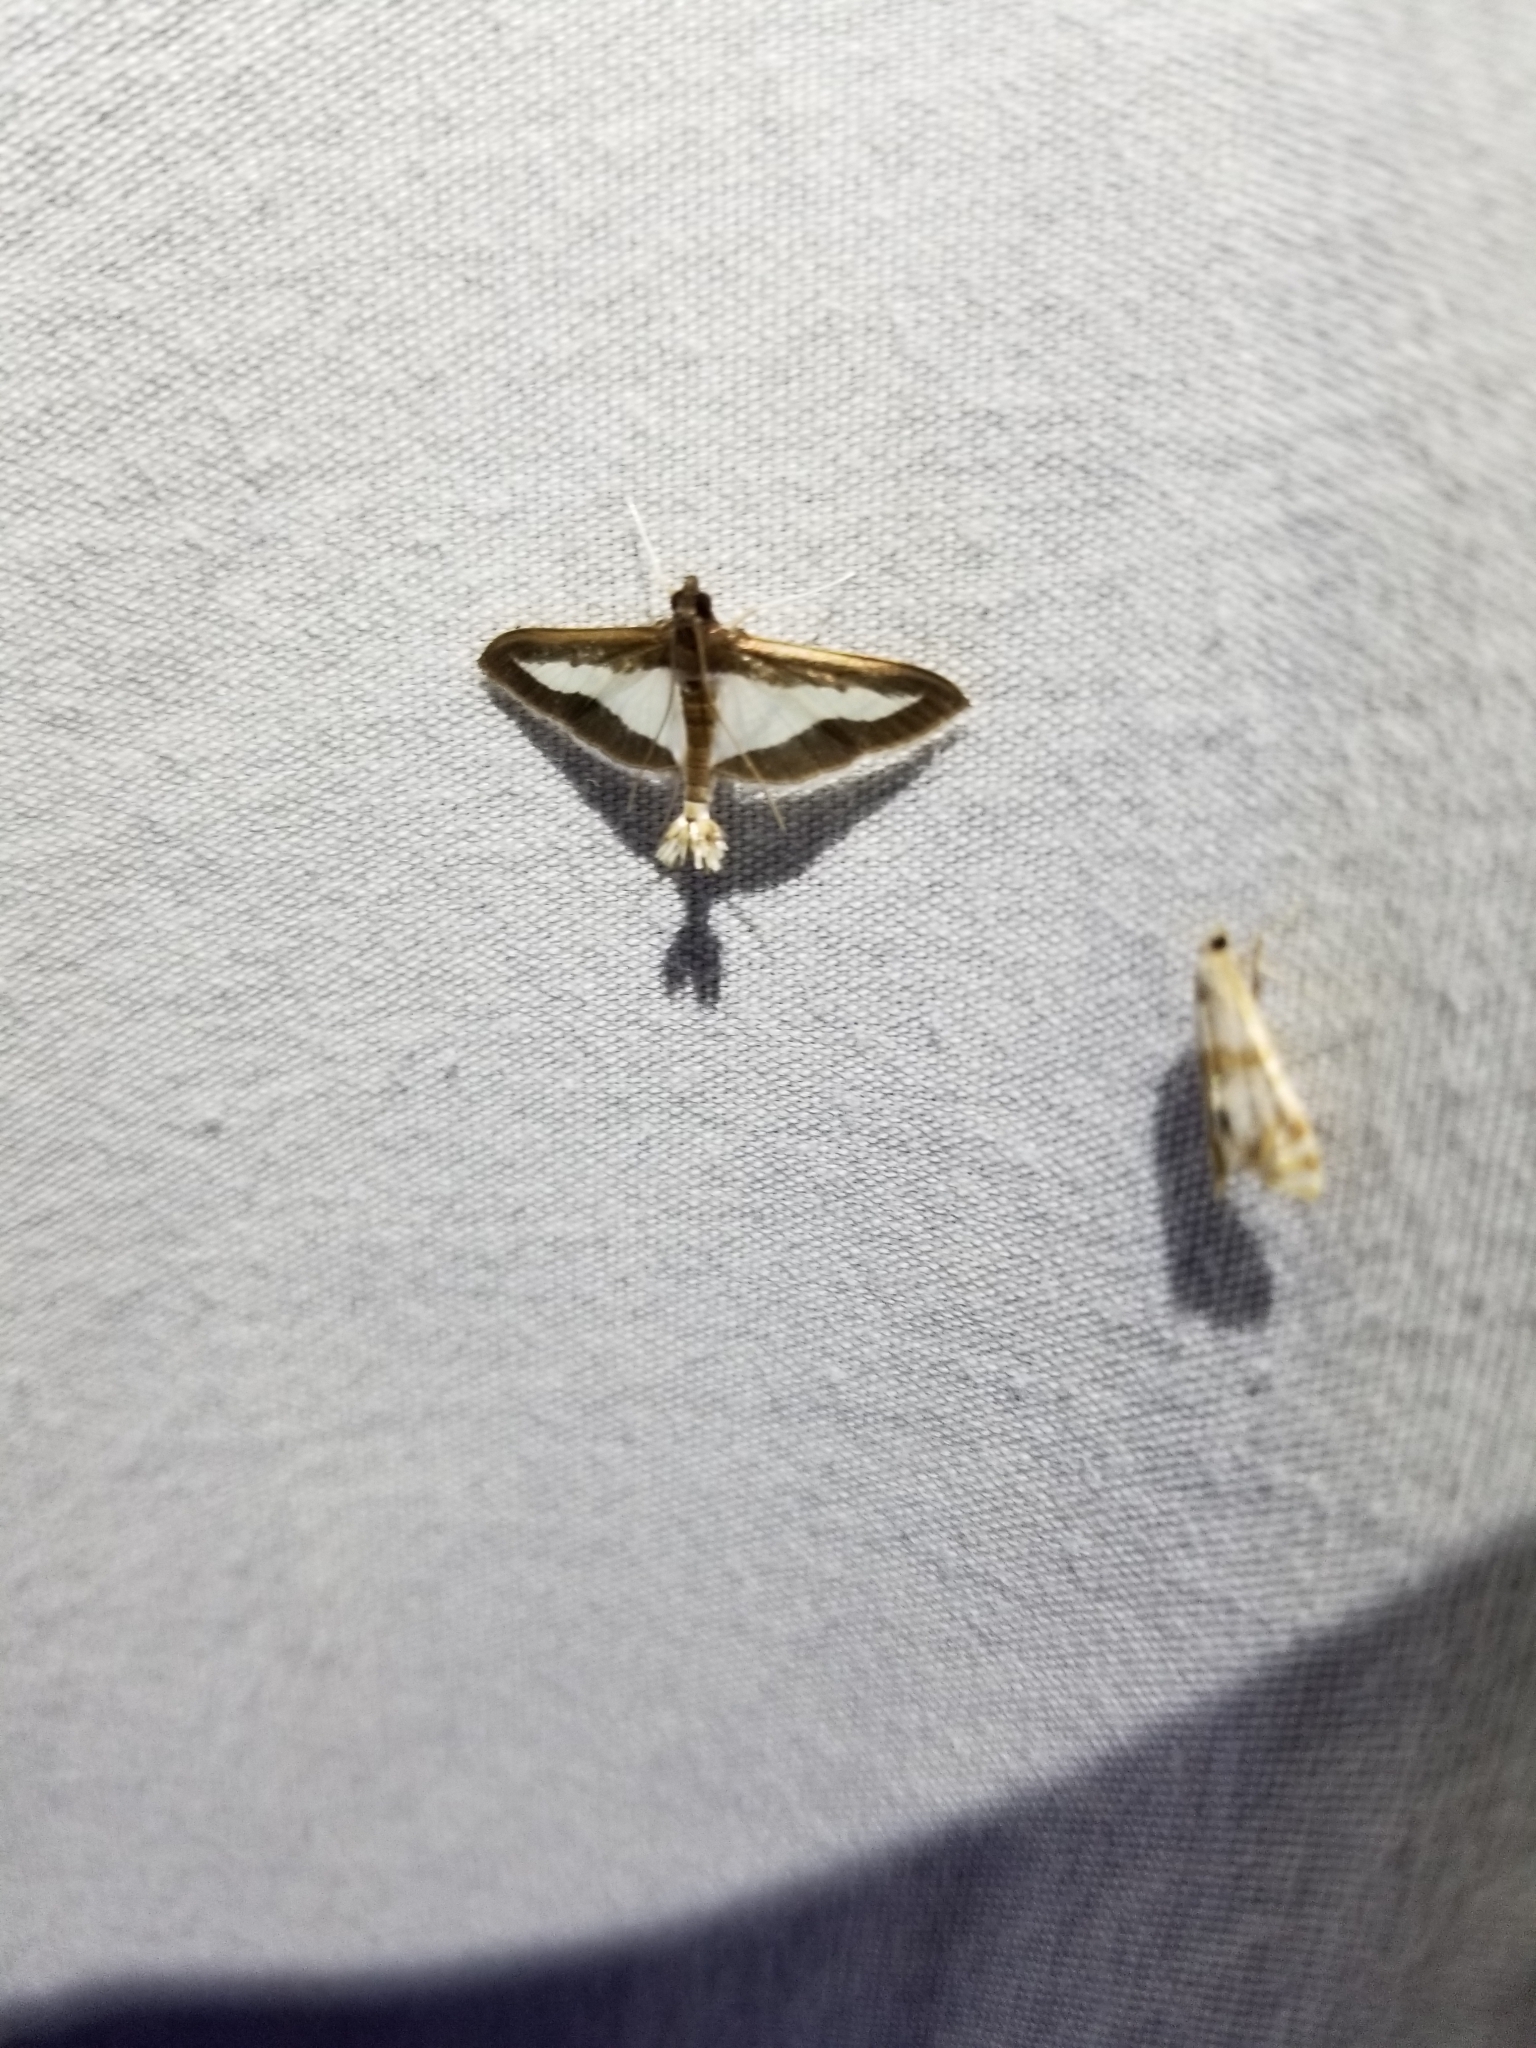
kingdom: Animalia
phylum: Arthropoda
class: Insecta
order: Lepidoptera
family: Crambidae
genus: Diaphania
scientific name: Diaphania indica
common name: Cucumber moth
